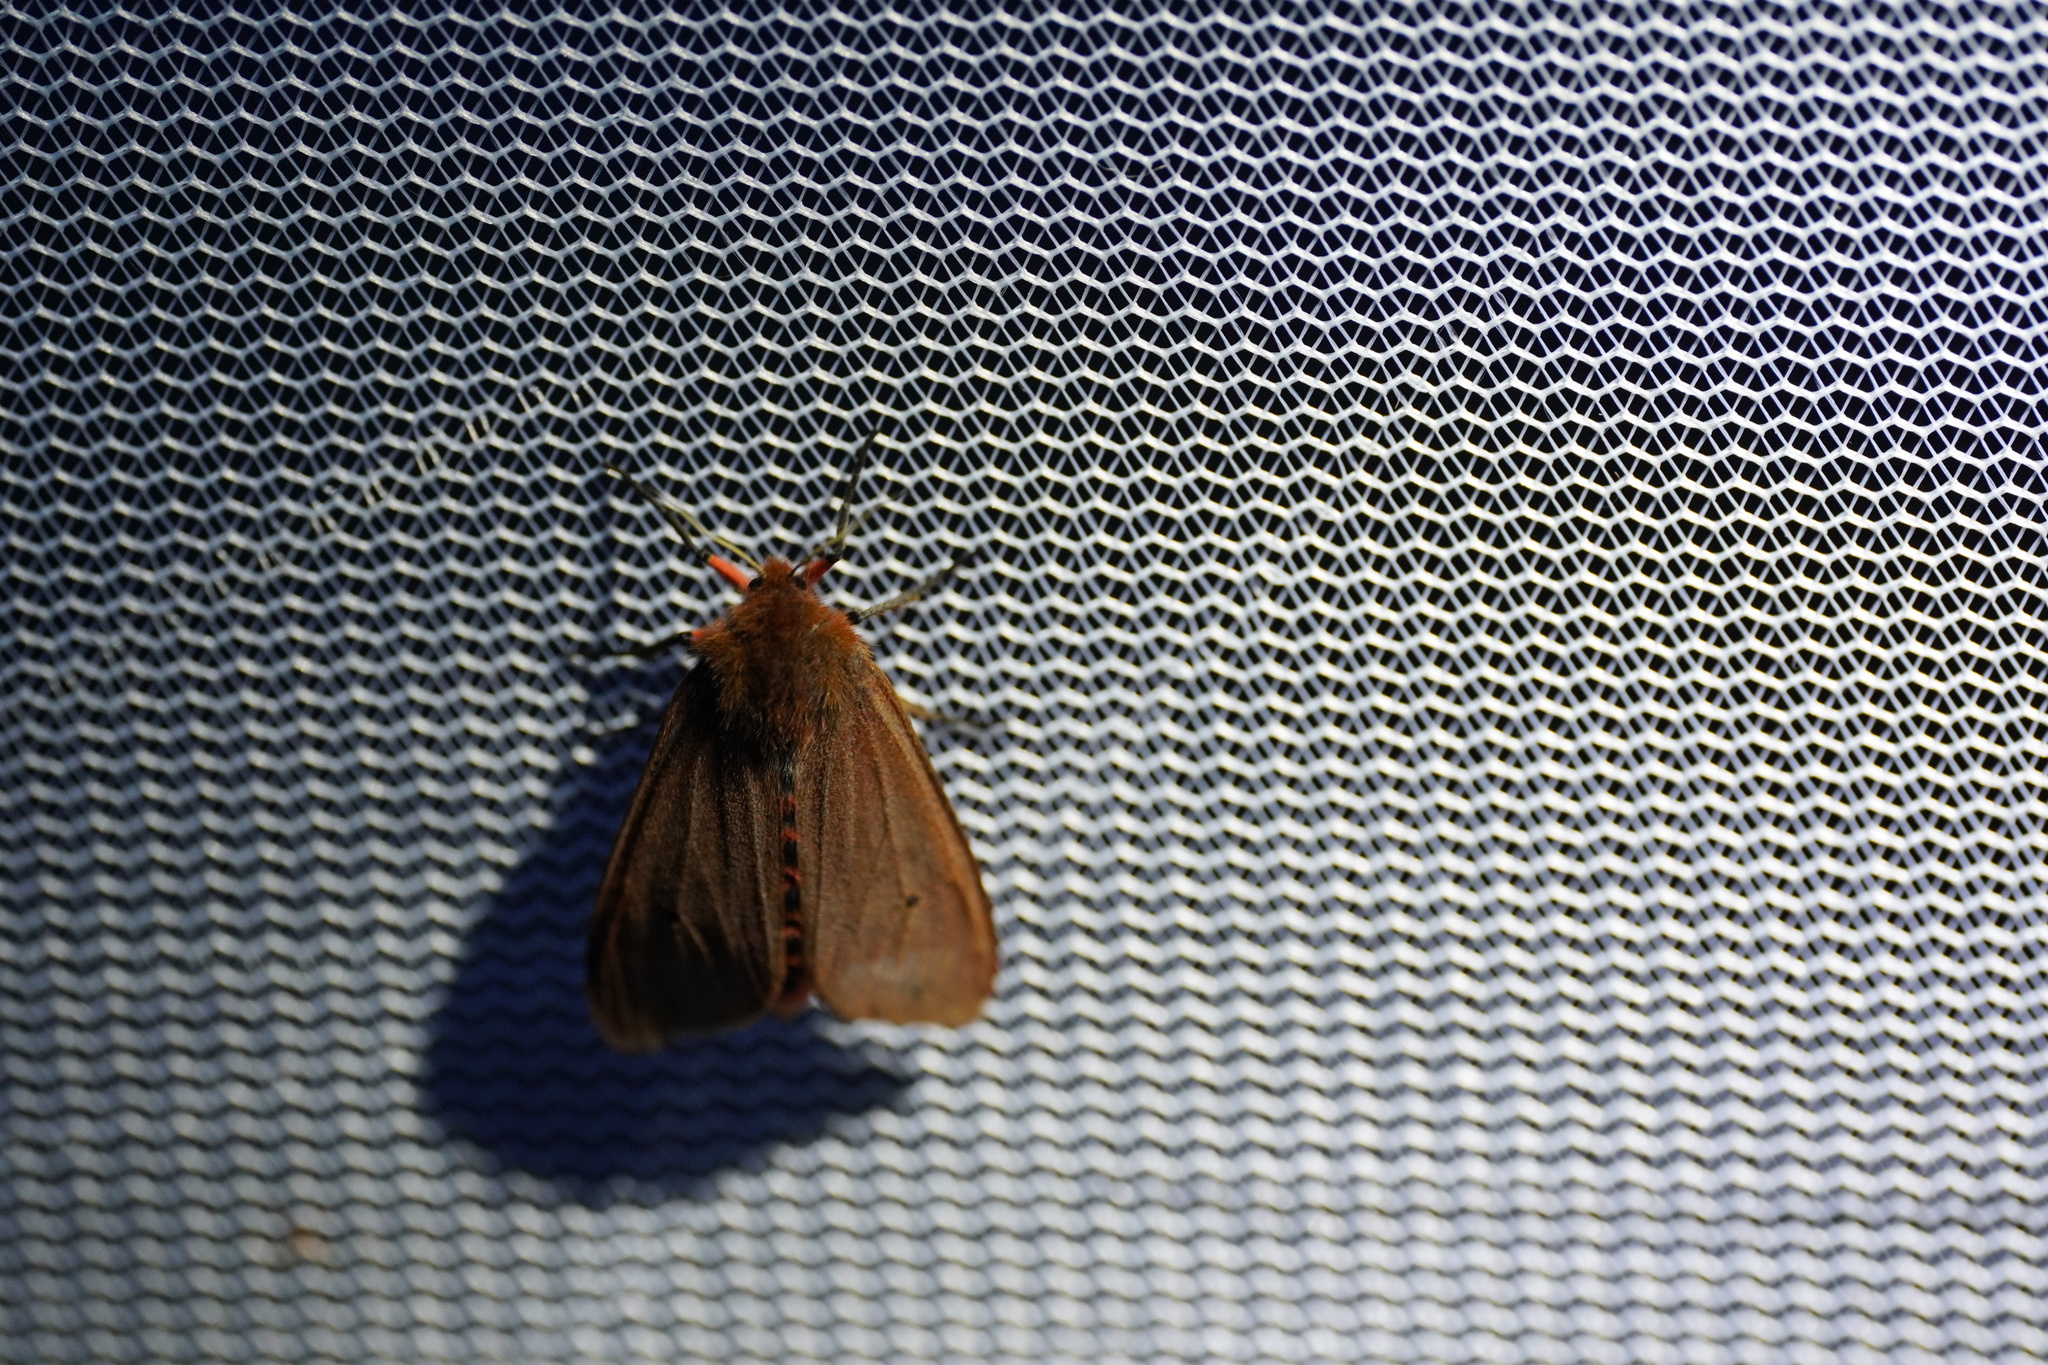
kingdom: Animalia
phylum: Arthropoda
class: Insecta
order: Lepidoptera
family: Erebidae
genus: Phragmatobia
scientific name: Phragmatobia fuliginosa
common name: Ruby tiger
